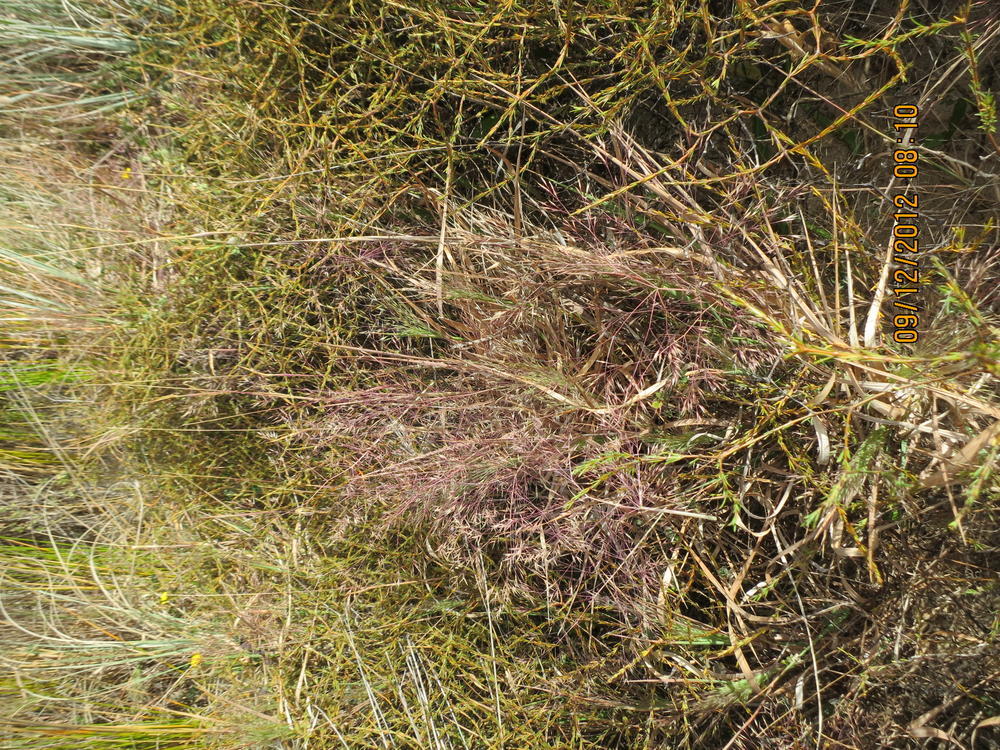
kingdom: Plantae
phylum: Tracheophyta
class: Liliopsida
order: Poales
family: Poaceae
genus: Lachnagrostis
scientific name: Lachnagrostis billardierei
